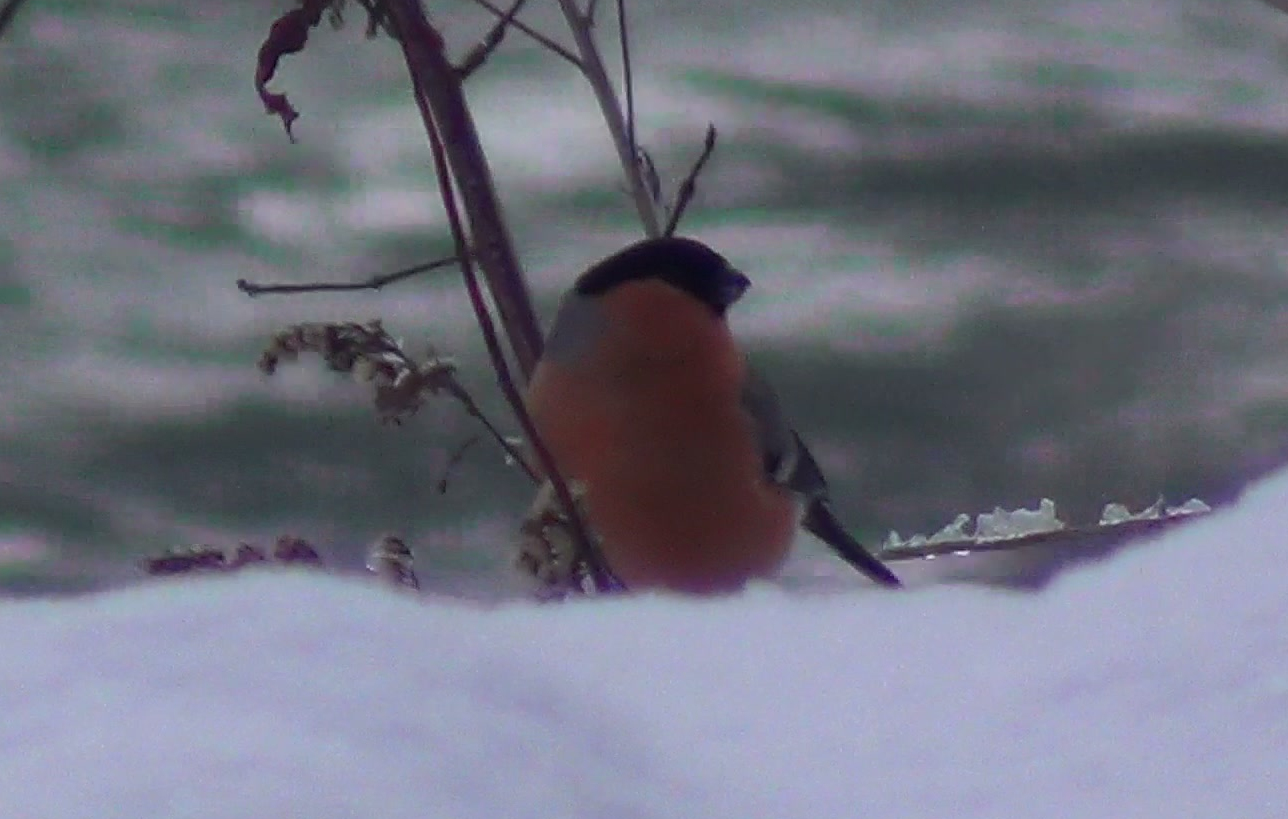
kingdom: Animalia
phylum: Chordata
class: Aves
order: Passeriformes
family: Fringillidae
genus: Pyrrhula
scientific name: Pyrrhula pyrrhula
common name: Eurasian bullfinch
